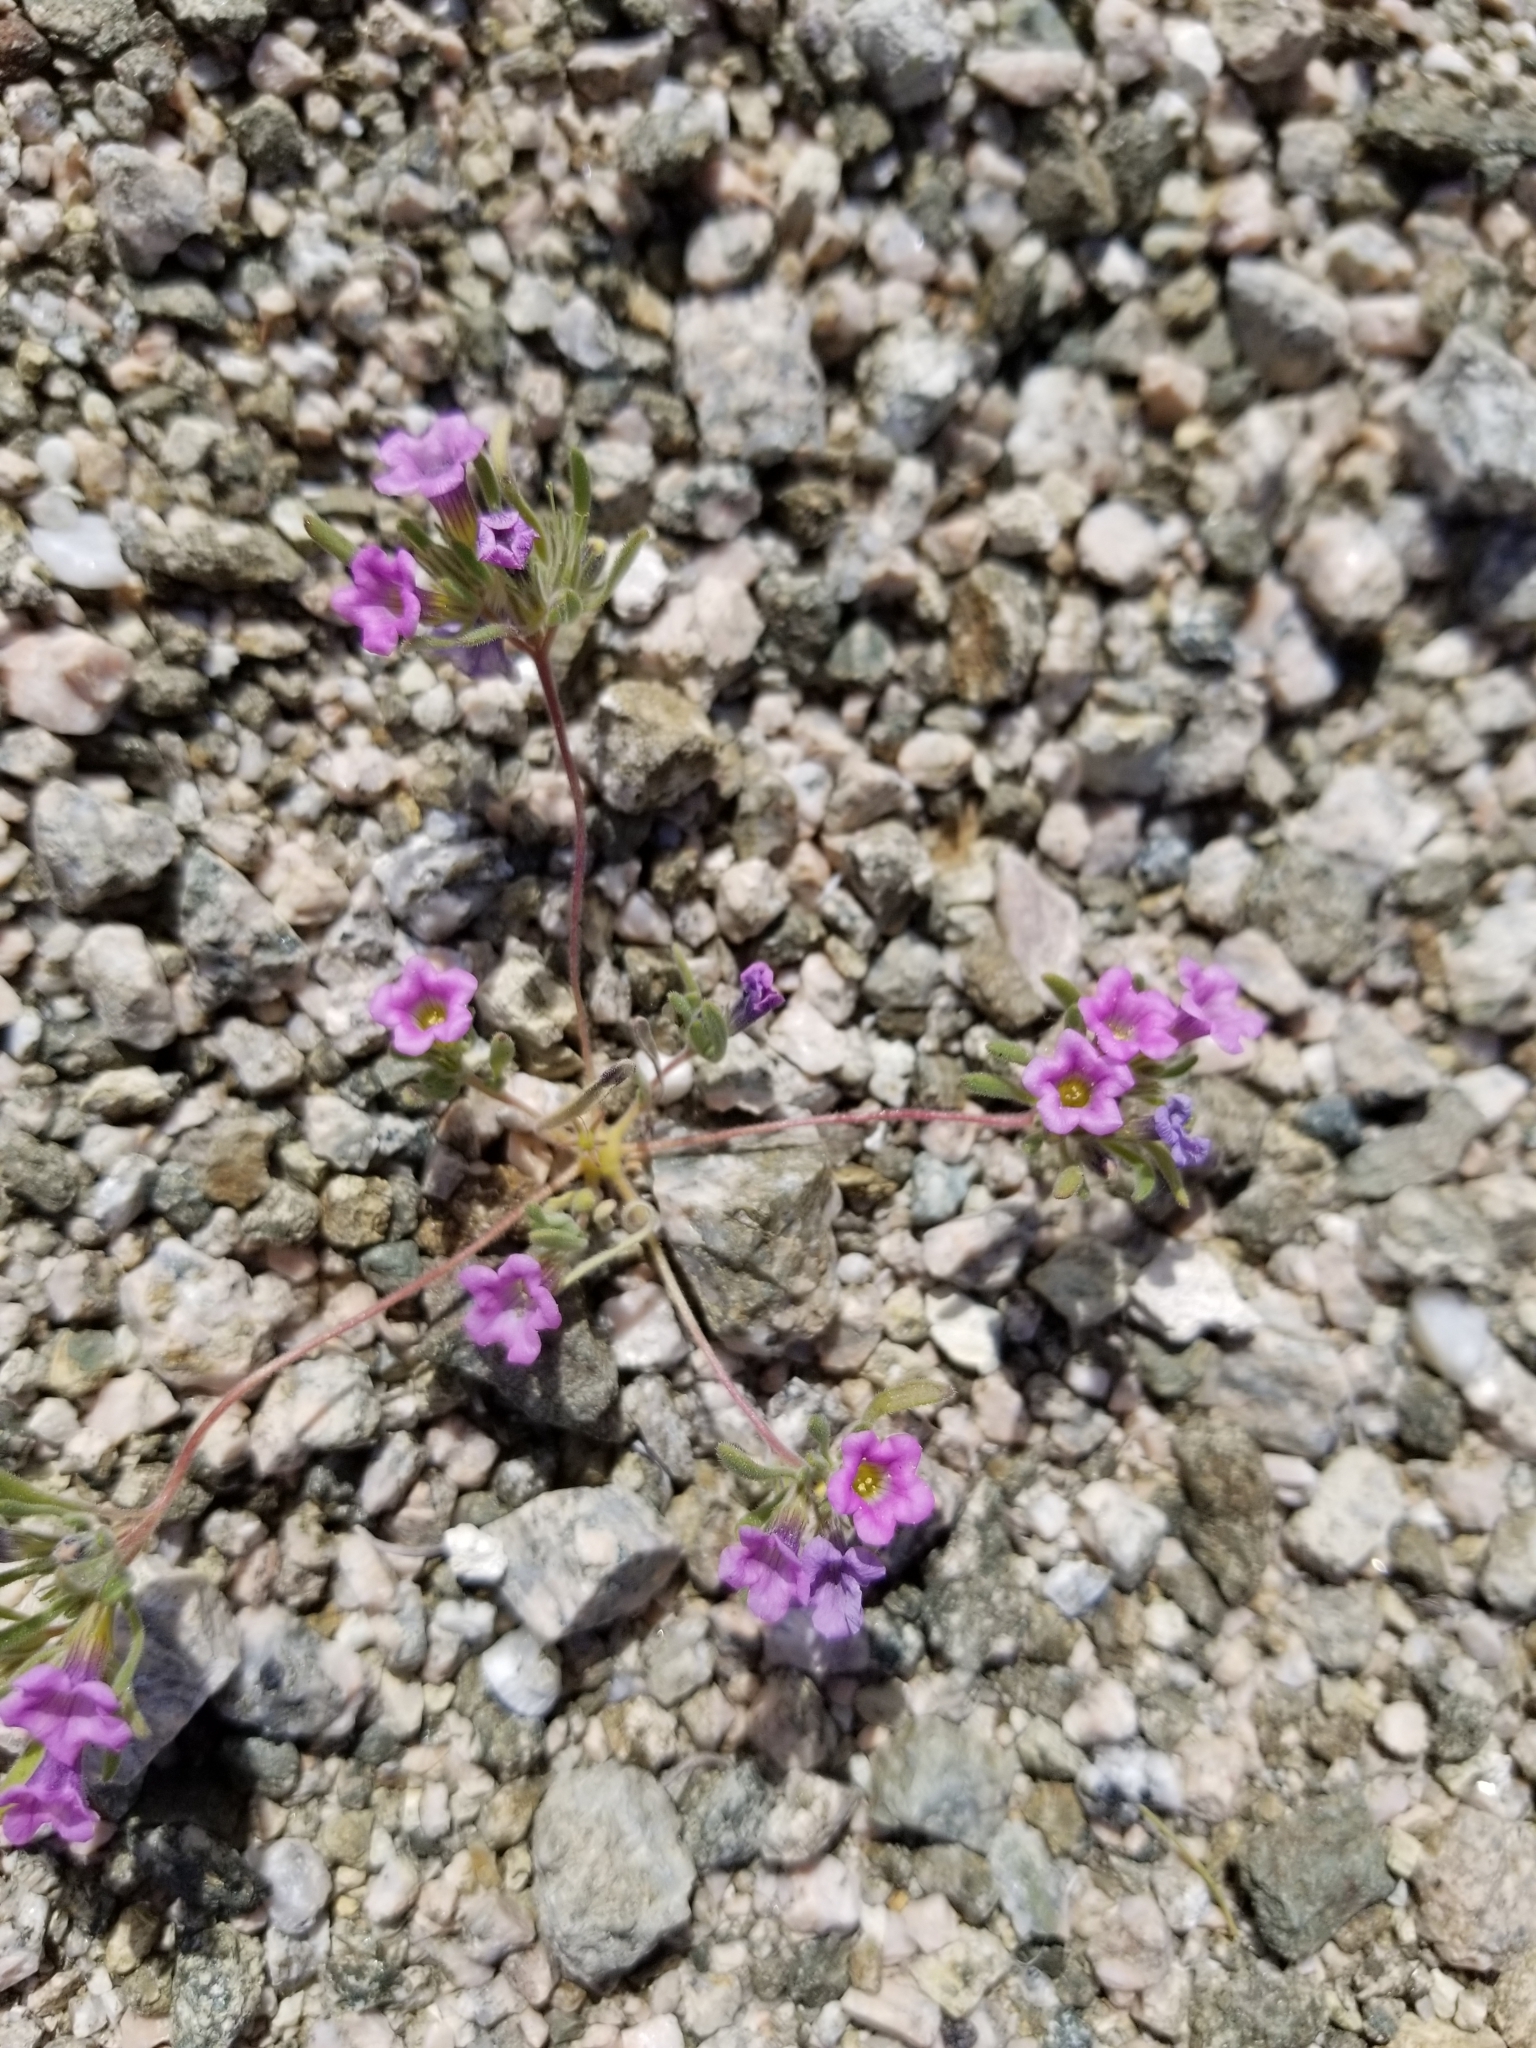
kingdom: Plantae
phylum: Tracheophyta
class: Magnoliopsida
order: Boraginales
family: Namaceae
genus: Nama
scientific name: Nama demissa
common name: Leafy nama
